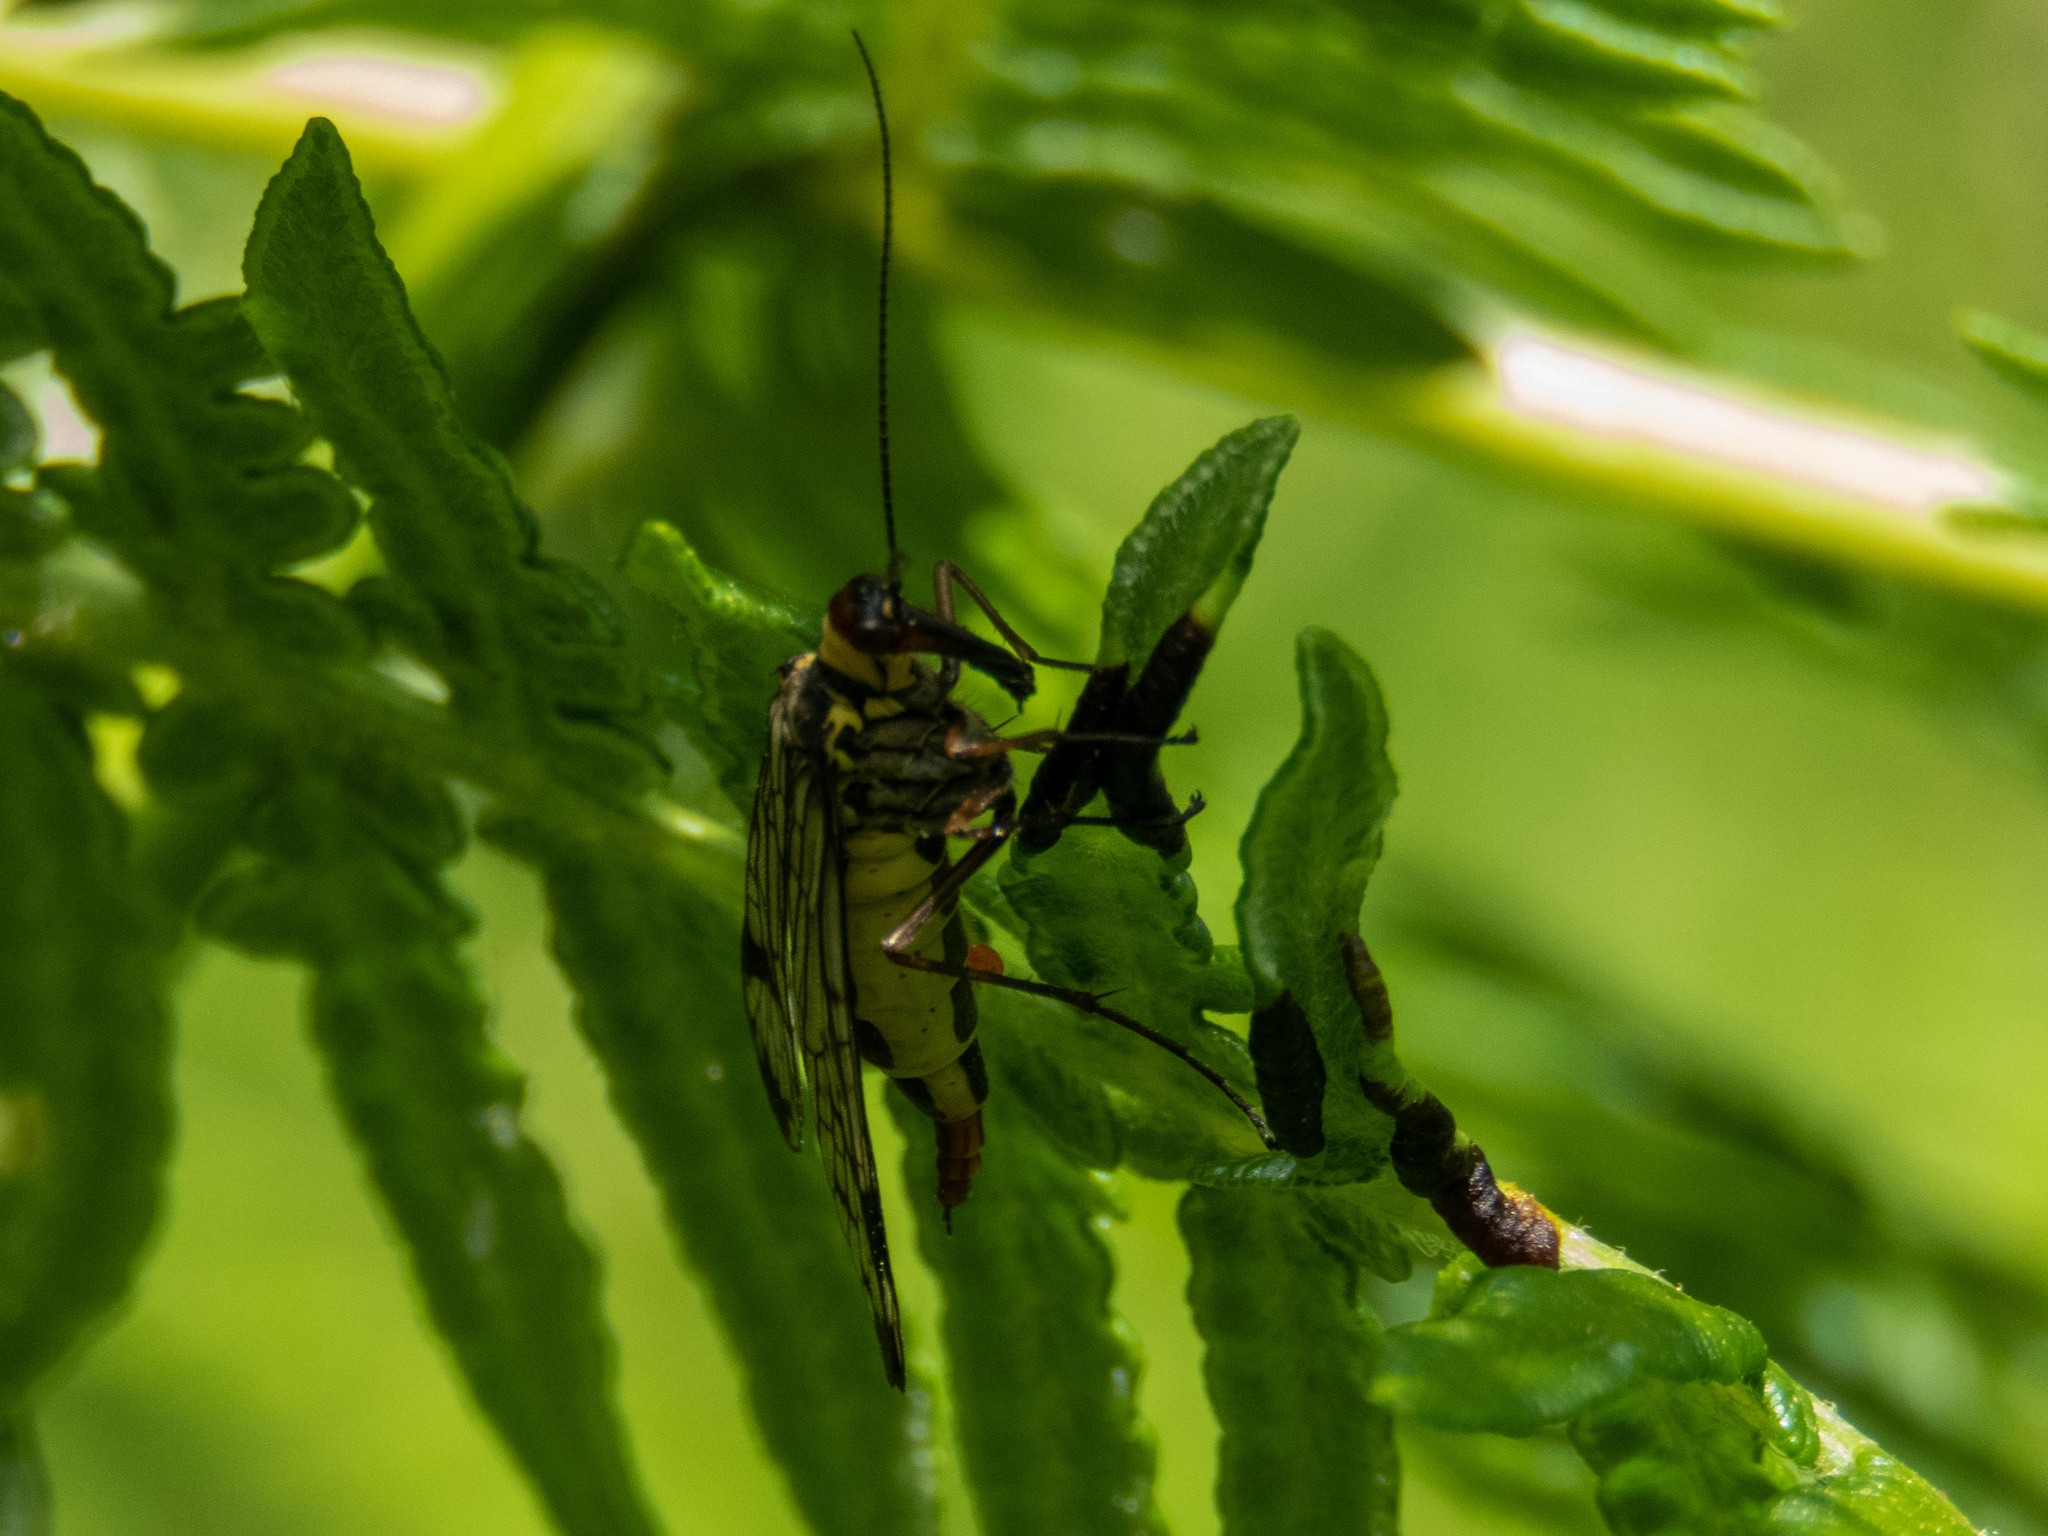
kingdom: Animalia
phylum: Arthropoda
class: Insecta
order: Mecoptera
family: Panorpidae
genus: Panorpa
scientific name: Panorpa meridionalis
